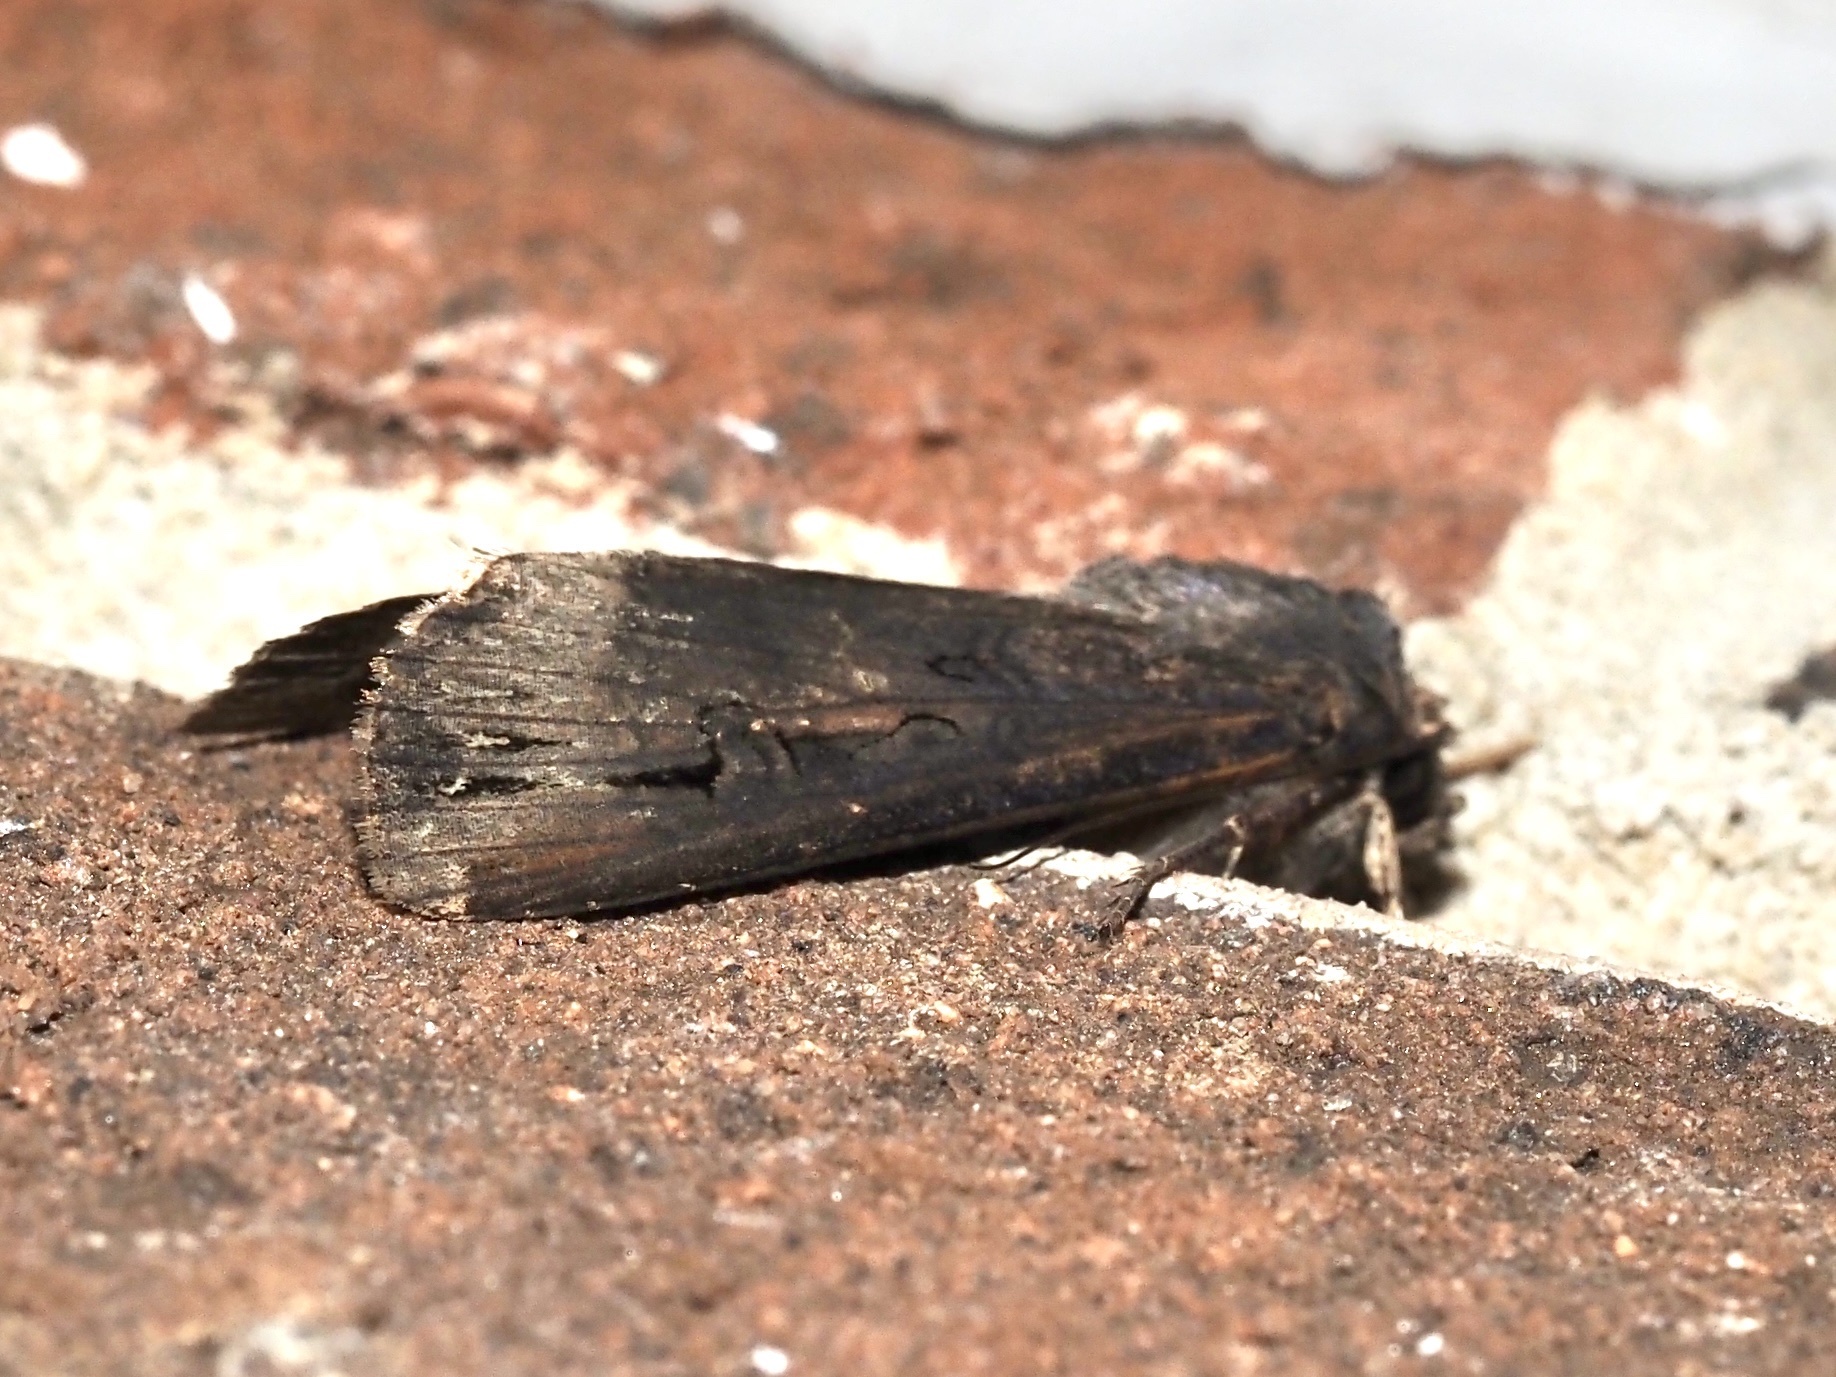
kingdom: Animalia
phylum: Arthropoda
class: Insecta
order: Lepidoptera
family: Noctuidae
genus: Agrotis
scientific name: Agrotis ipsilon
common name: Dark sword-grass
